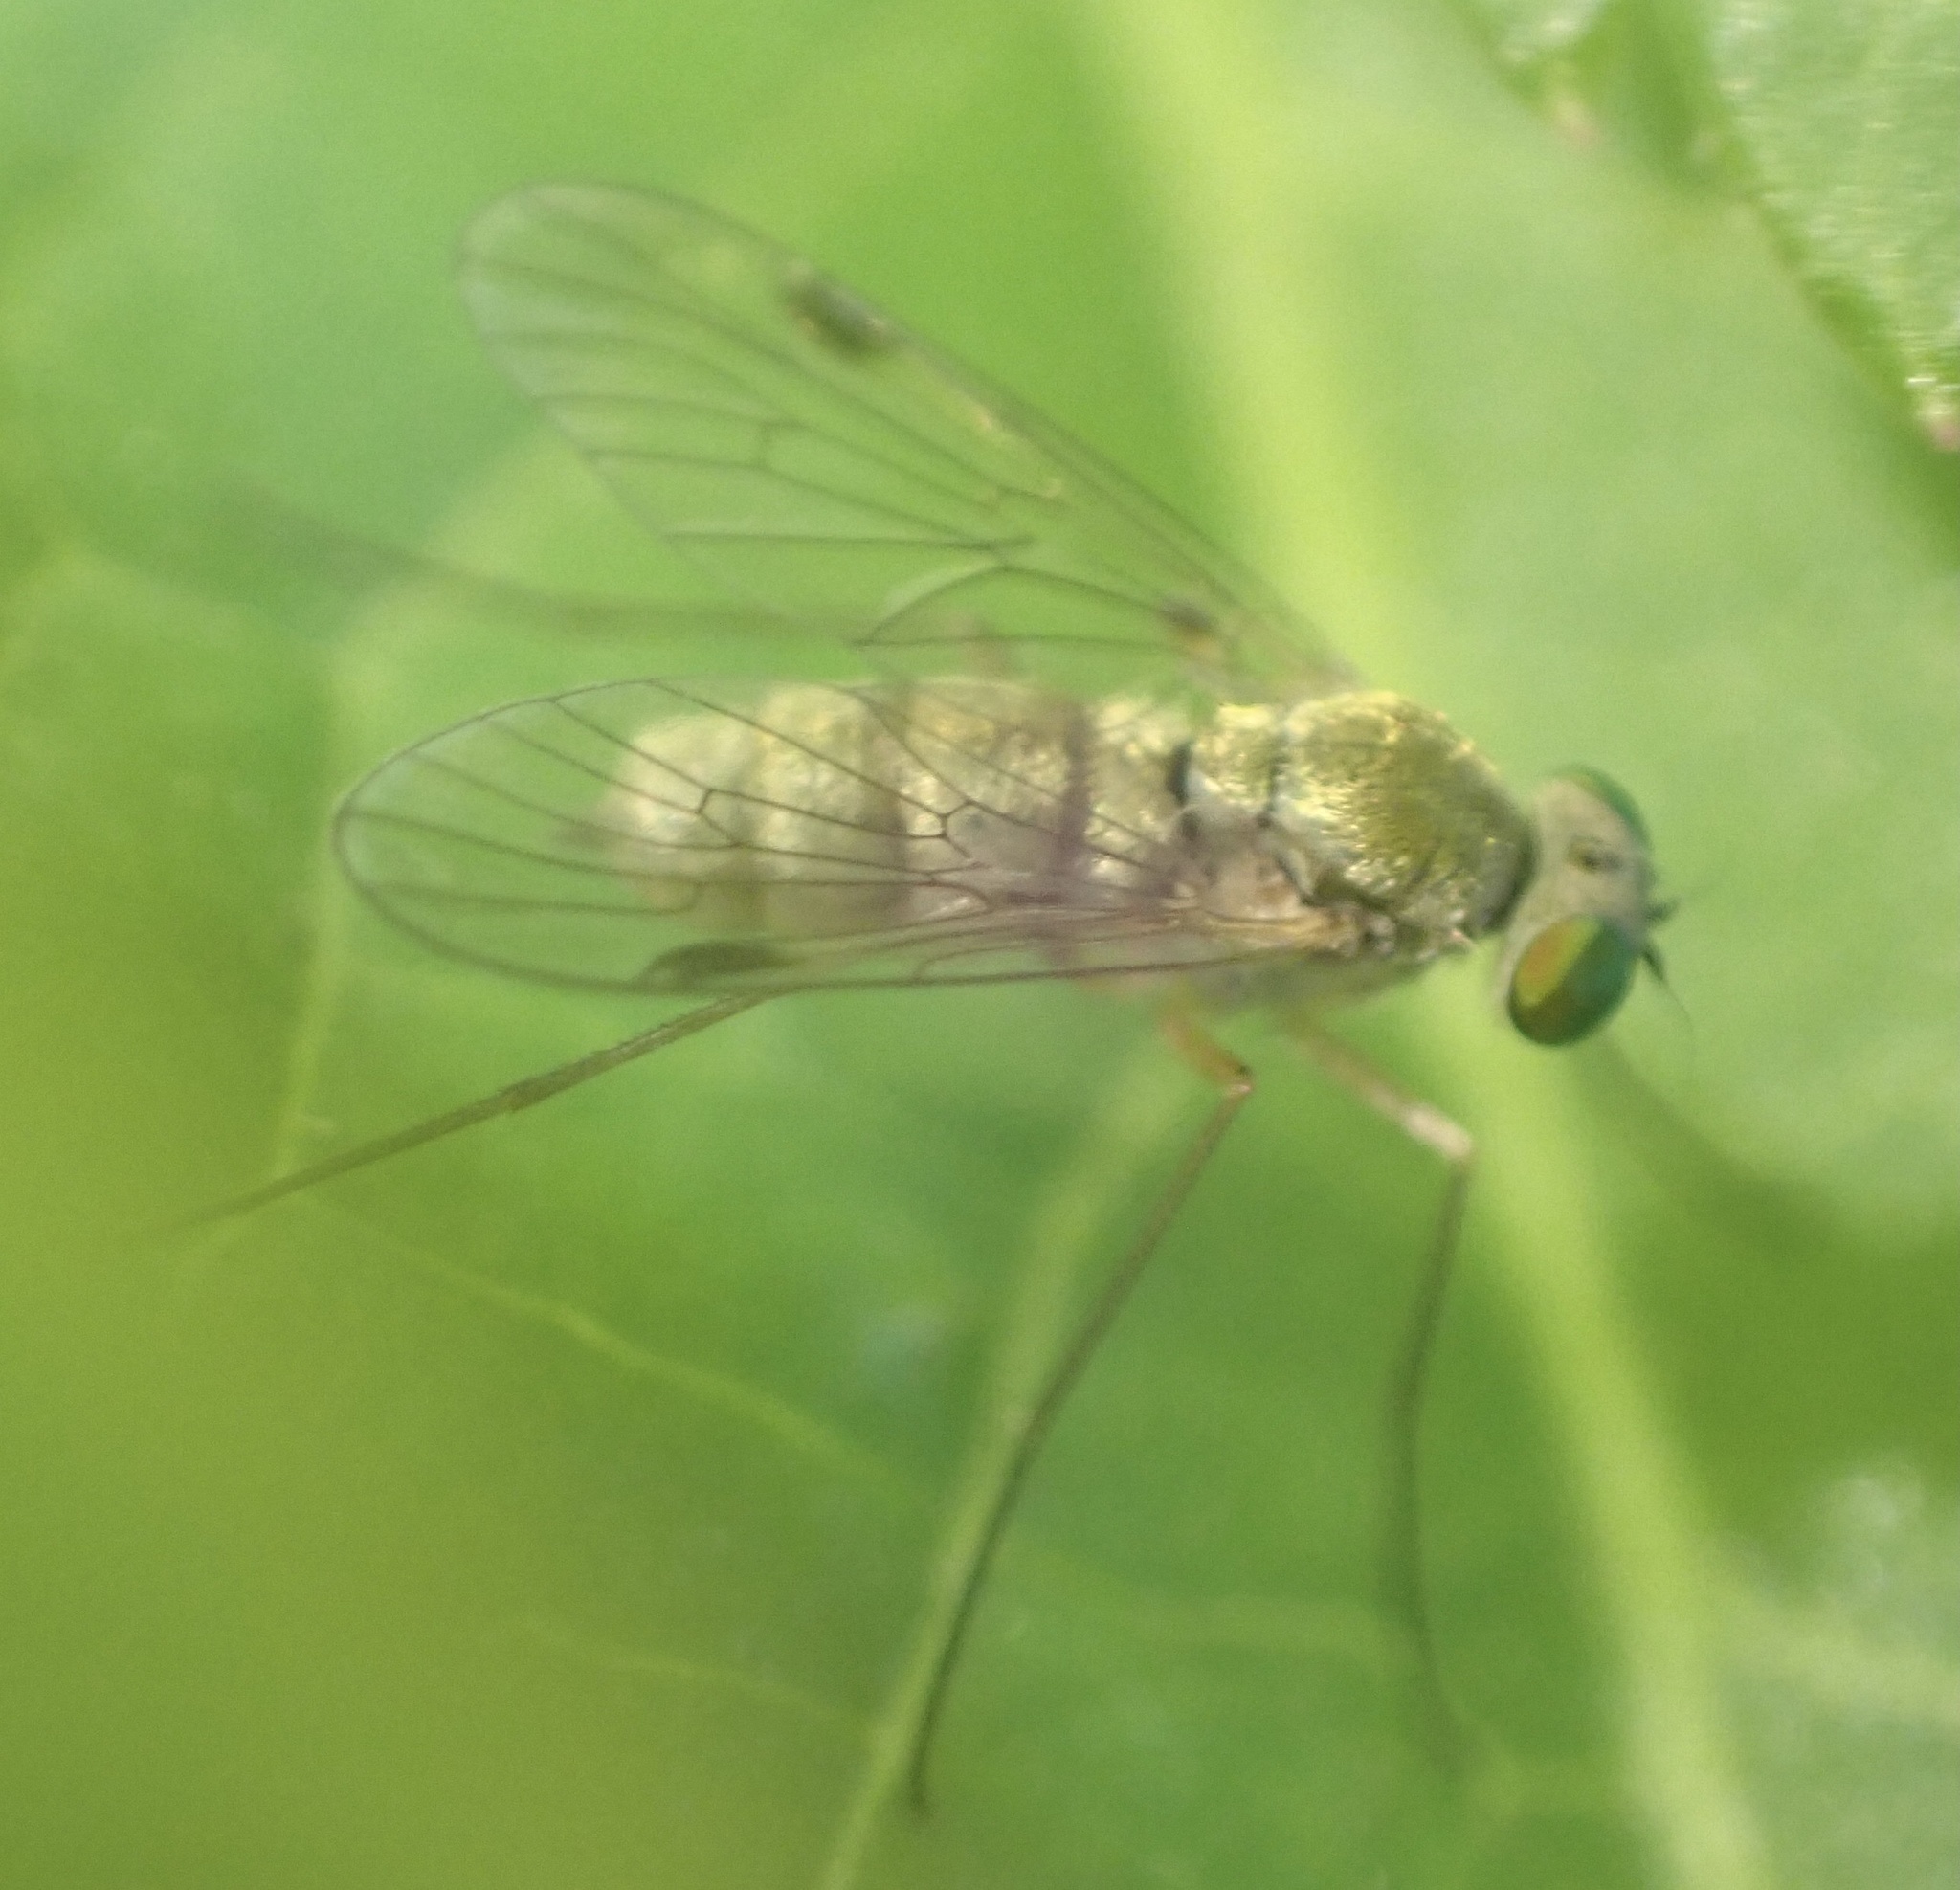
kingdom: Animalia
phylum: Arthropoda
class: Insecta
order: Diptera
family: Rhagionidae
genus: Chrysopilus
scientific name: Chrysopilus asiliformis
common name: Little snipefly
